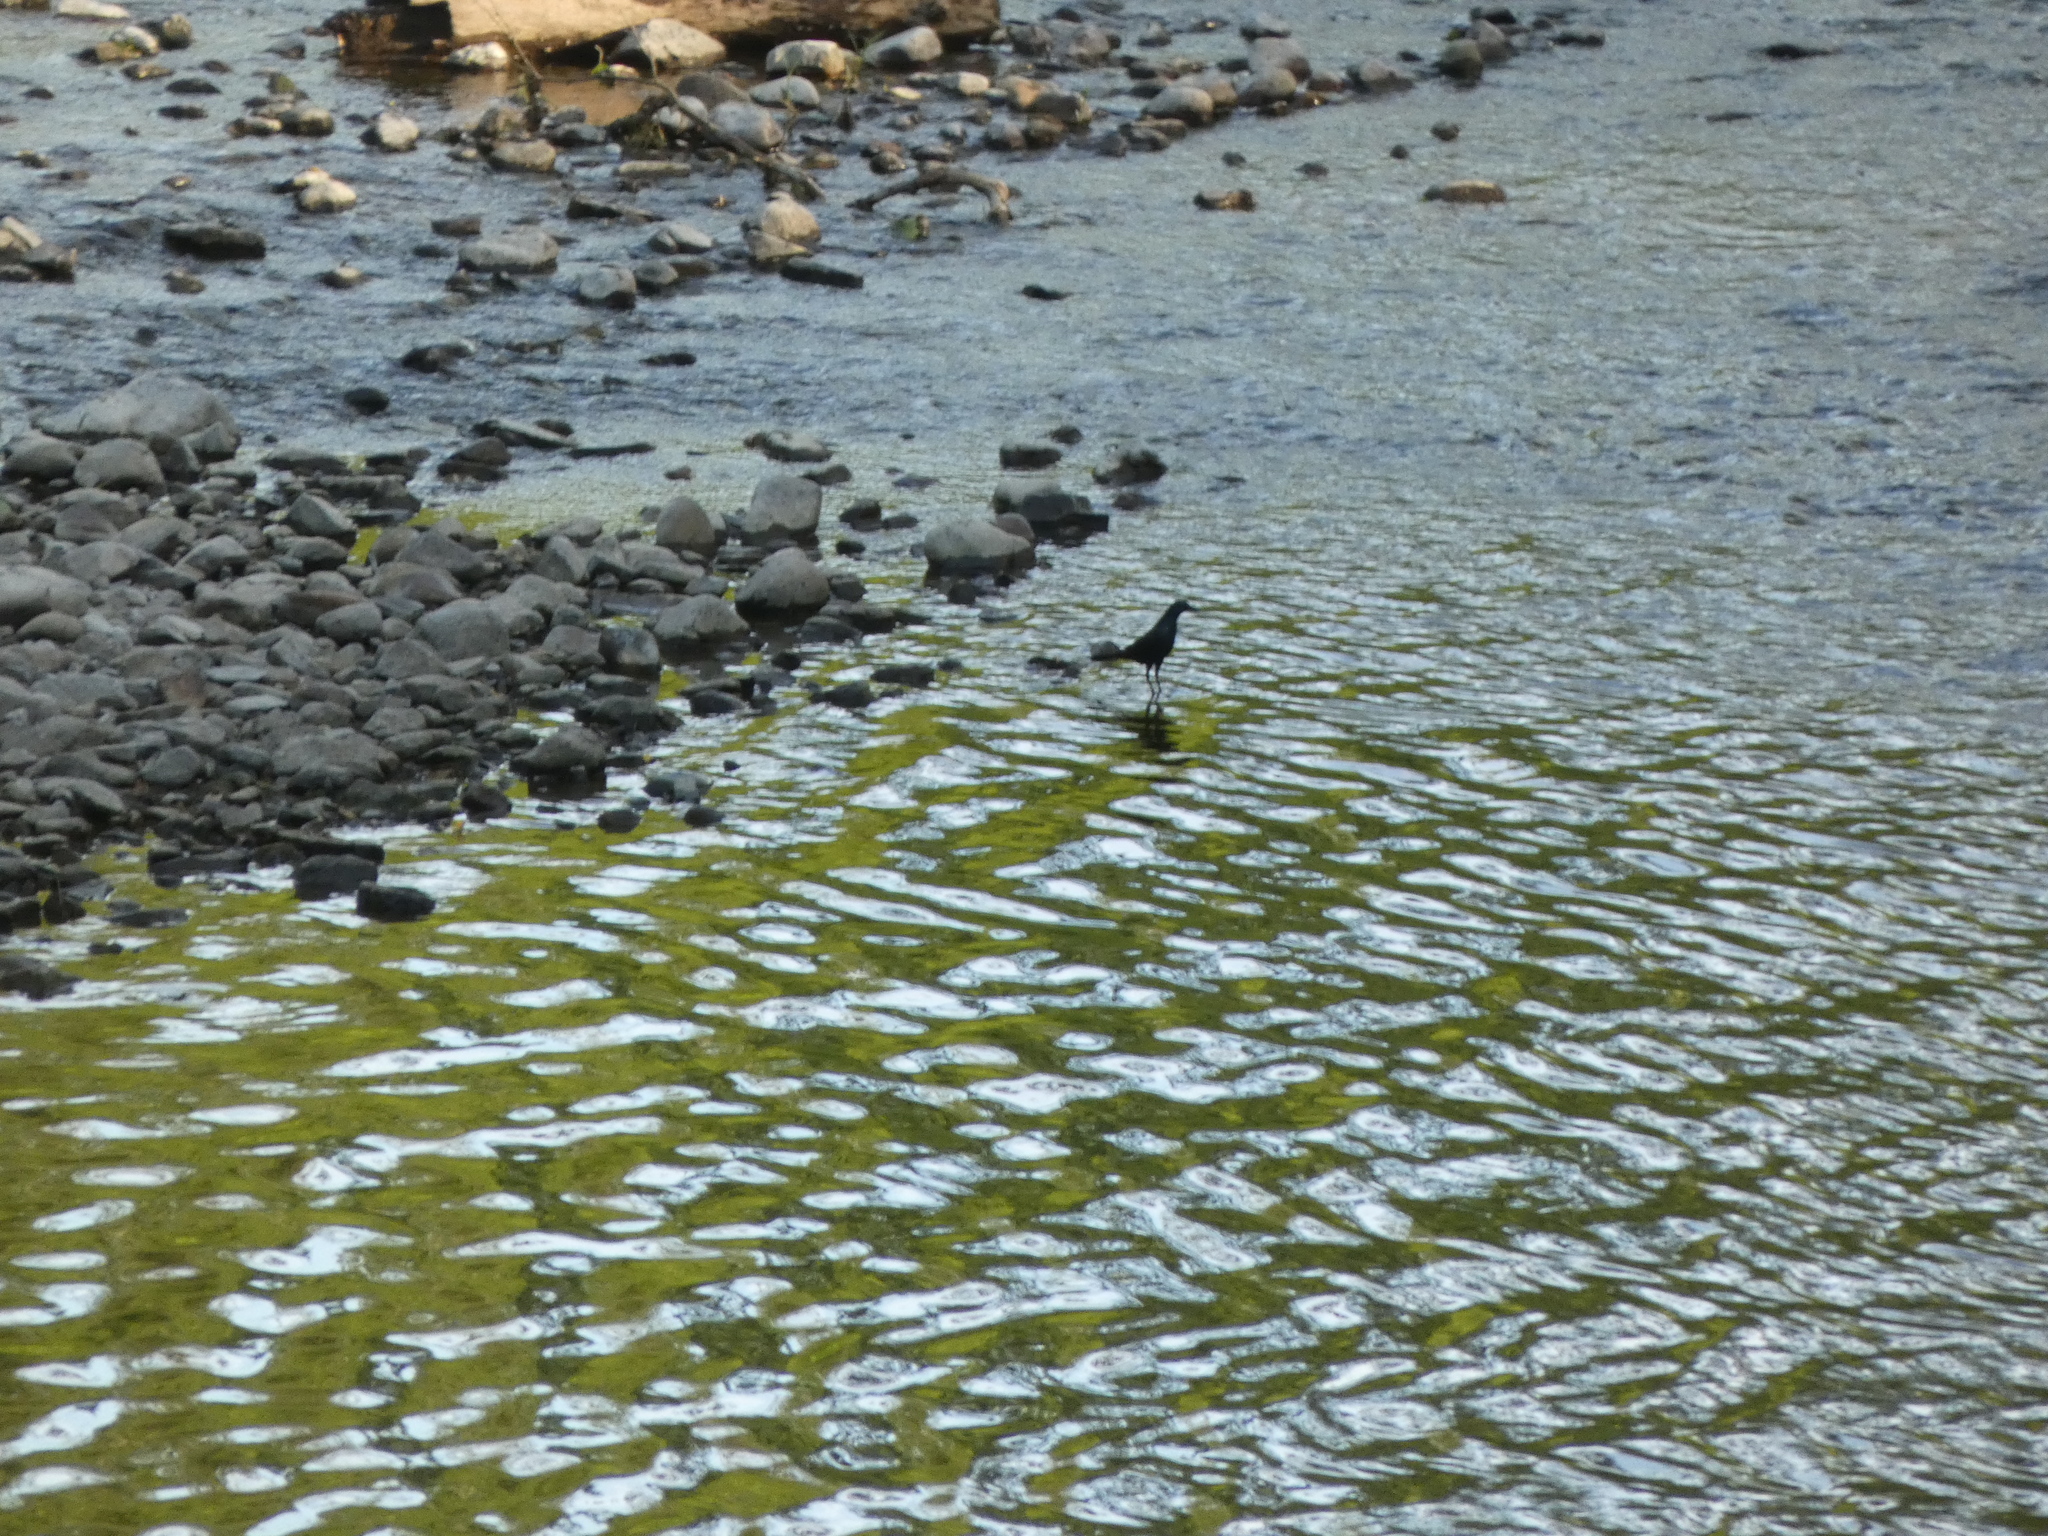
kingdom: Animalia
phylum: Chordata
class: Aves
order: Passeriformes
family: Icteridae
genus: Quiscalus
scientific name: Quiscalus quiscula
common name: Common grackle
